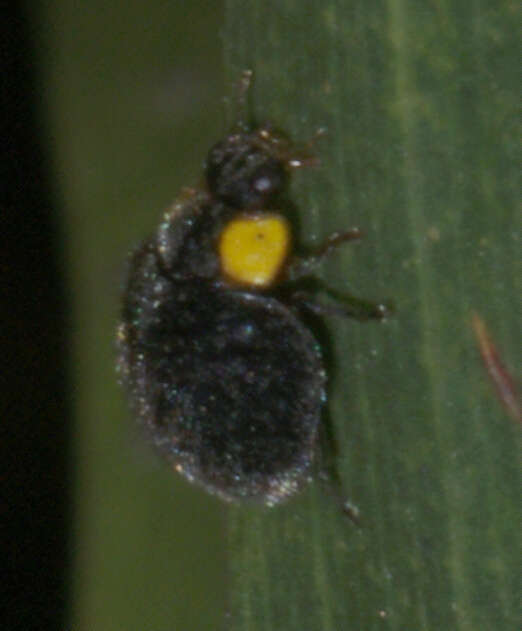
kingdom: Animalia
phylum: Arthropoda
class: Insecta
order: Coleoptera
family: Coccinellidae
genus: Scymnodes
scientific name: Scymnodes lividigaster
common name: Yellowshouldered lady beetle
